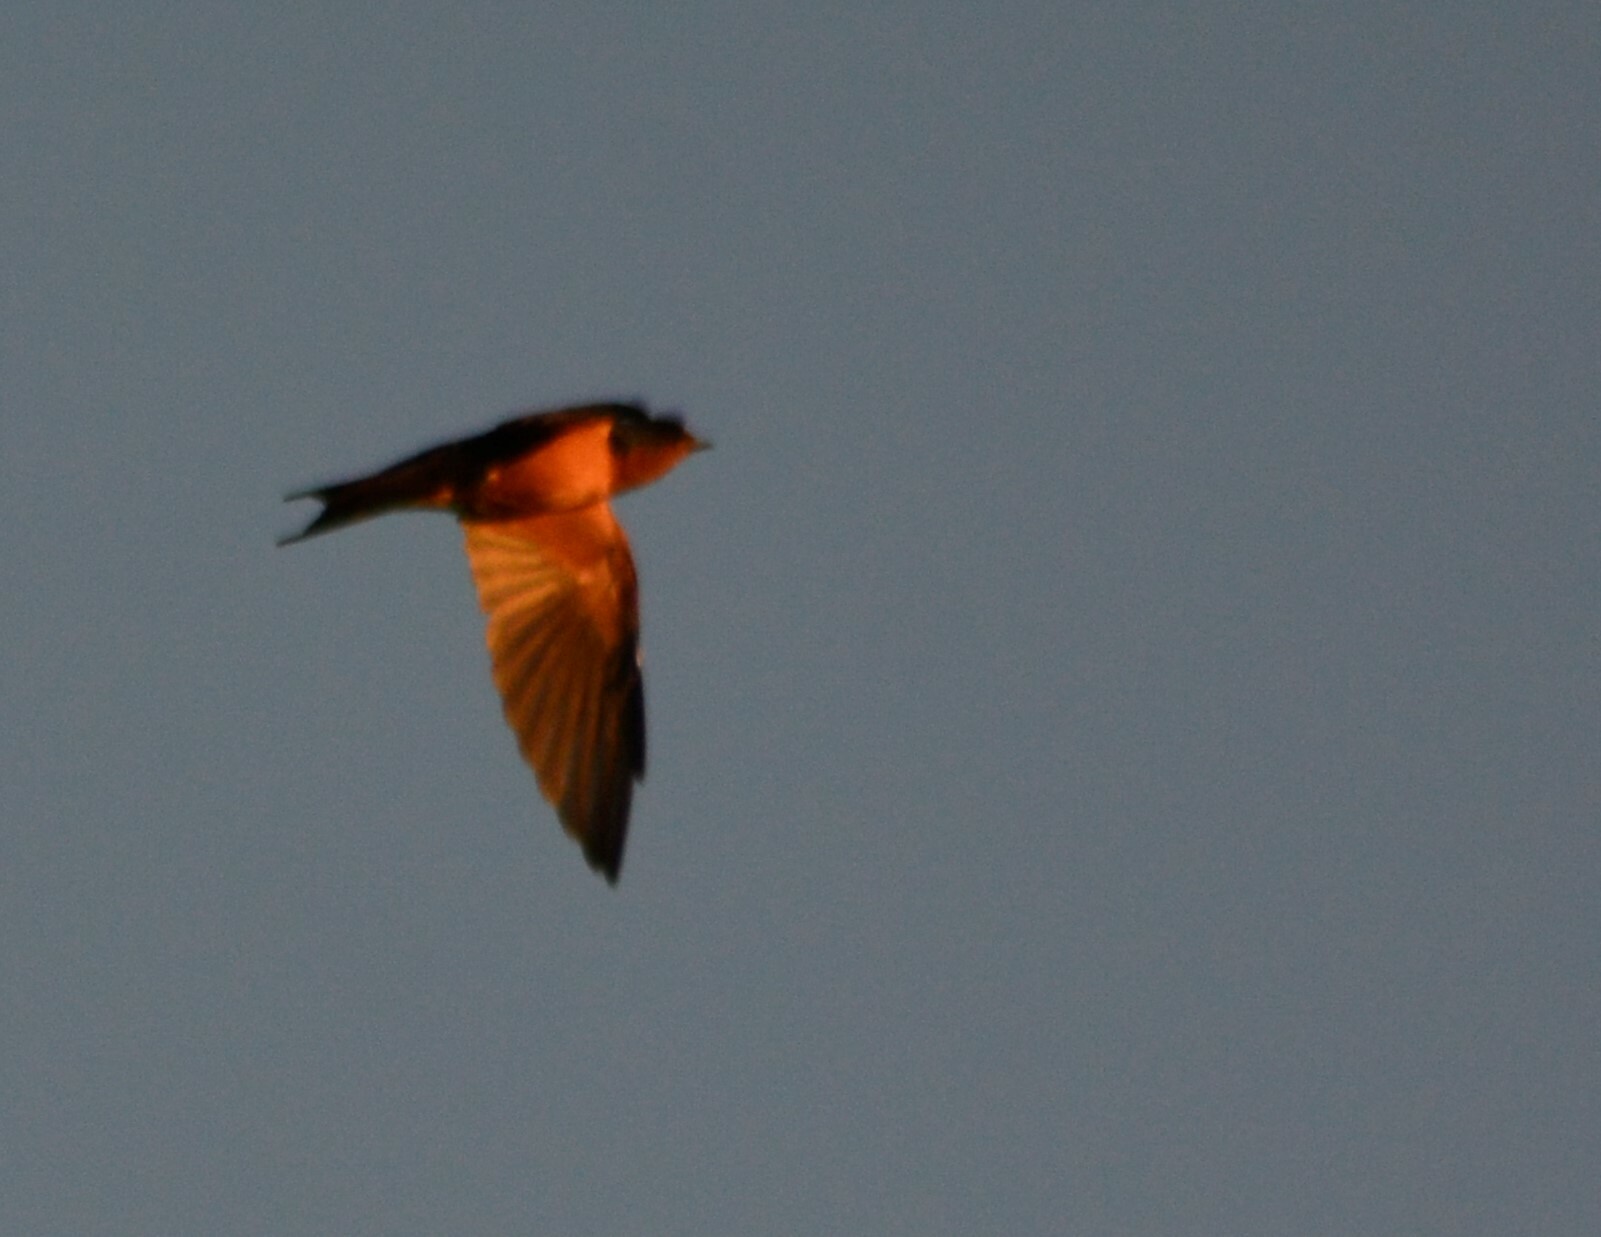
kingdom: Animalia
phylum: Chordata
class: Aves
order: Passeriformes
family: Hirundinidae
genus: Hirundo
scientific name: Hirundo rustica
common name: Barn swallow
